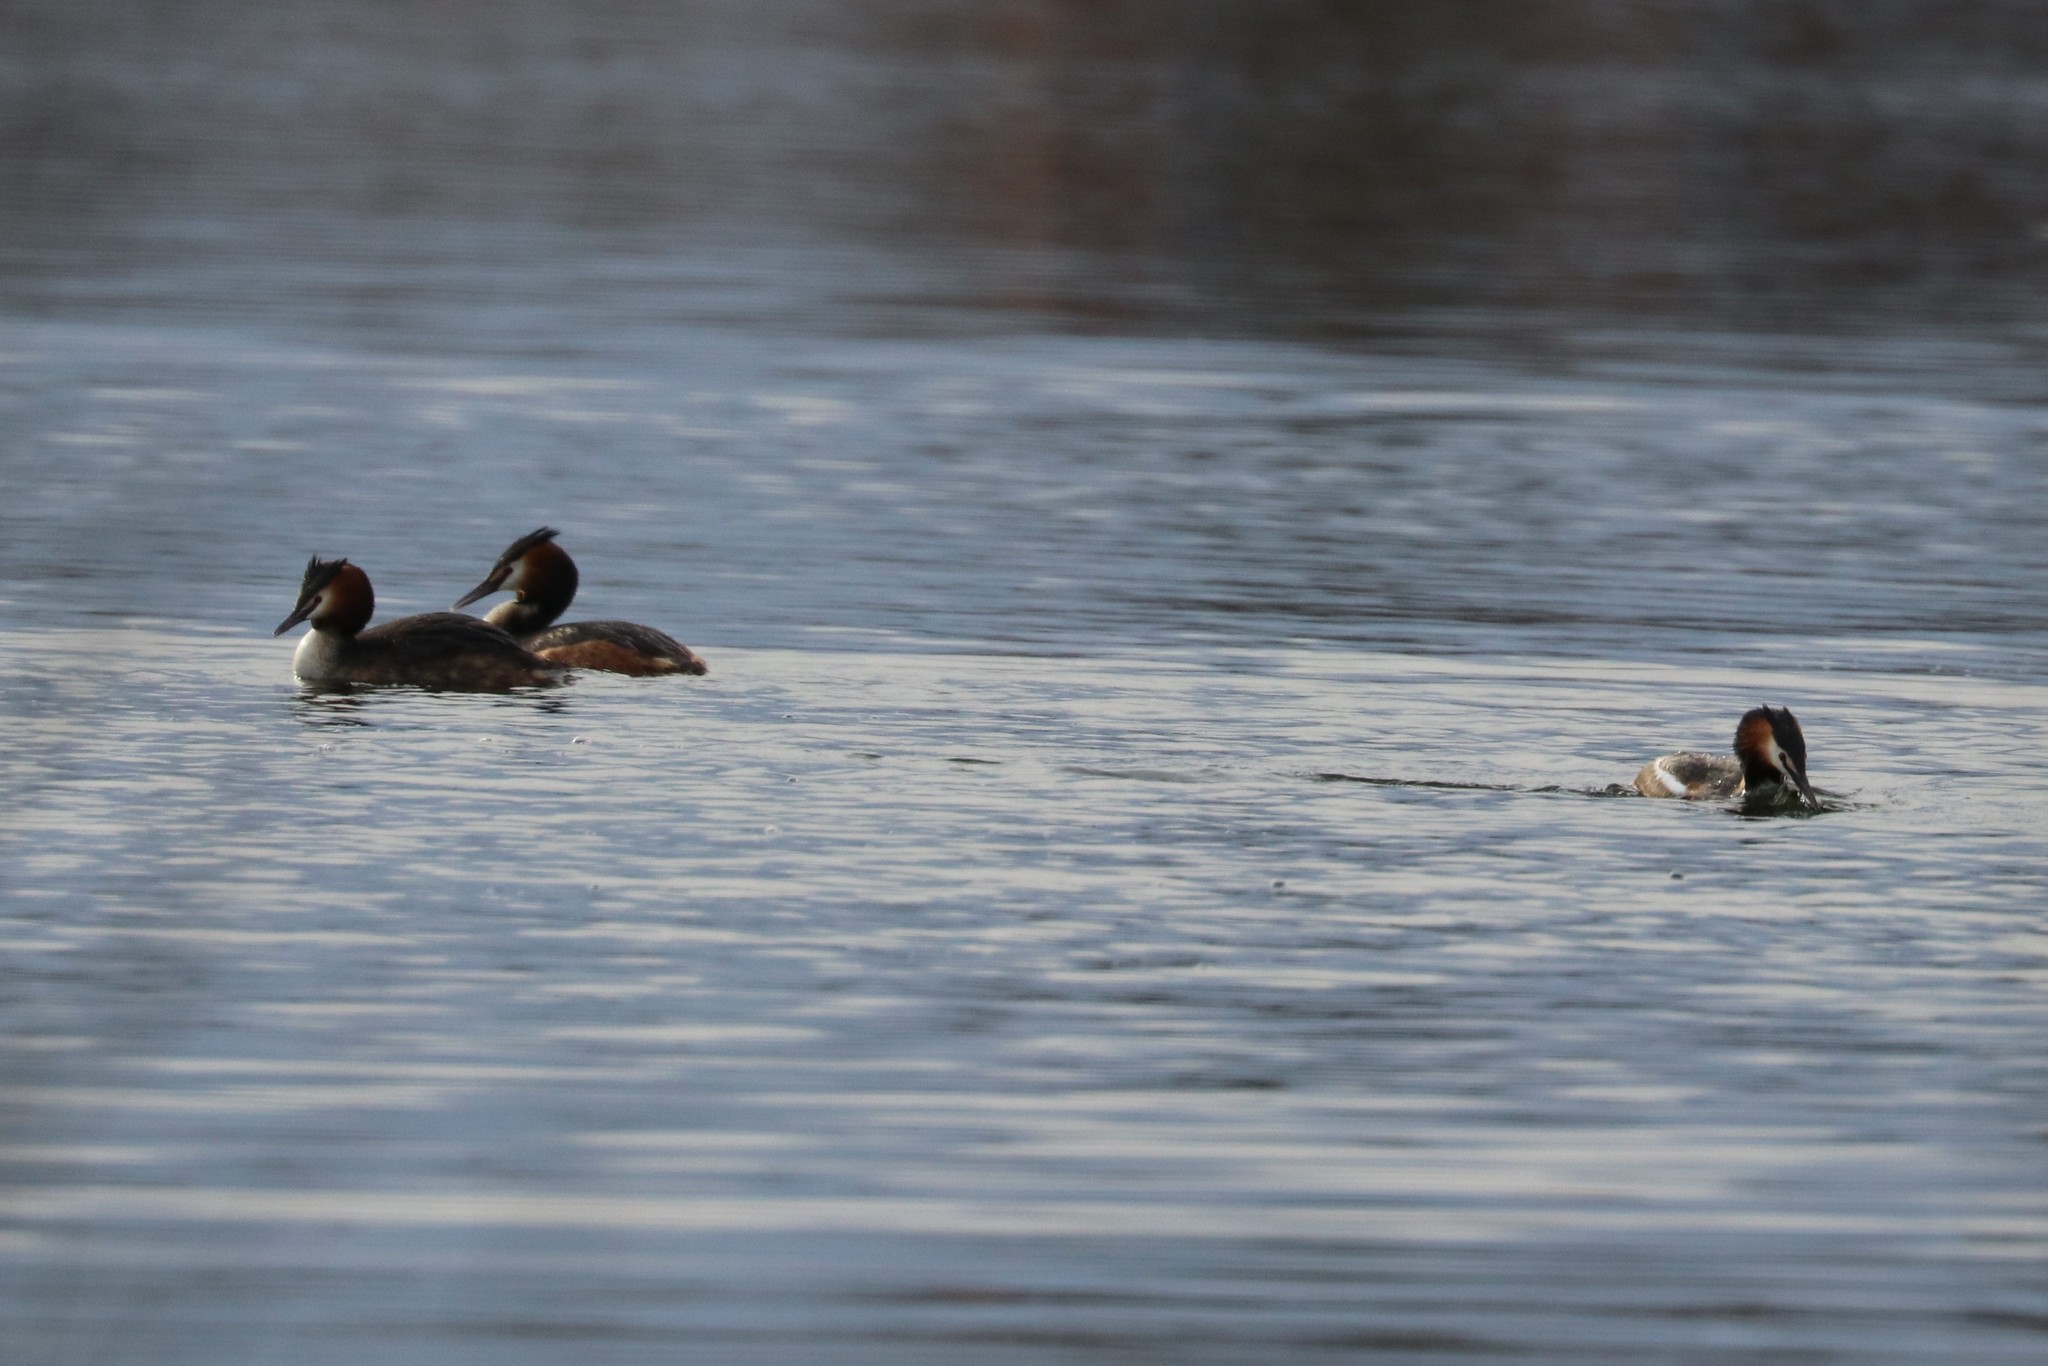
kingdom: Animalia
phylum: Chordata
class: Aves
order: Podicipediformes
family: Podicipedidae
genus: Podiceps
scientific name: Podiceps cristatus
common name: Great crested grebe
